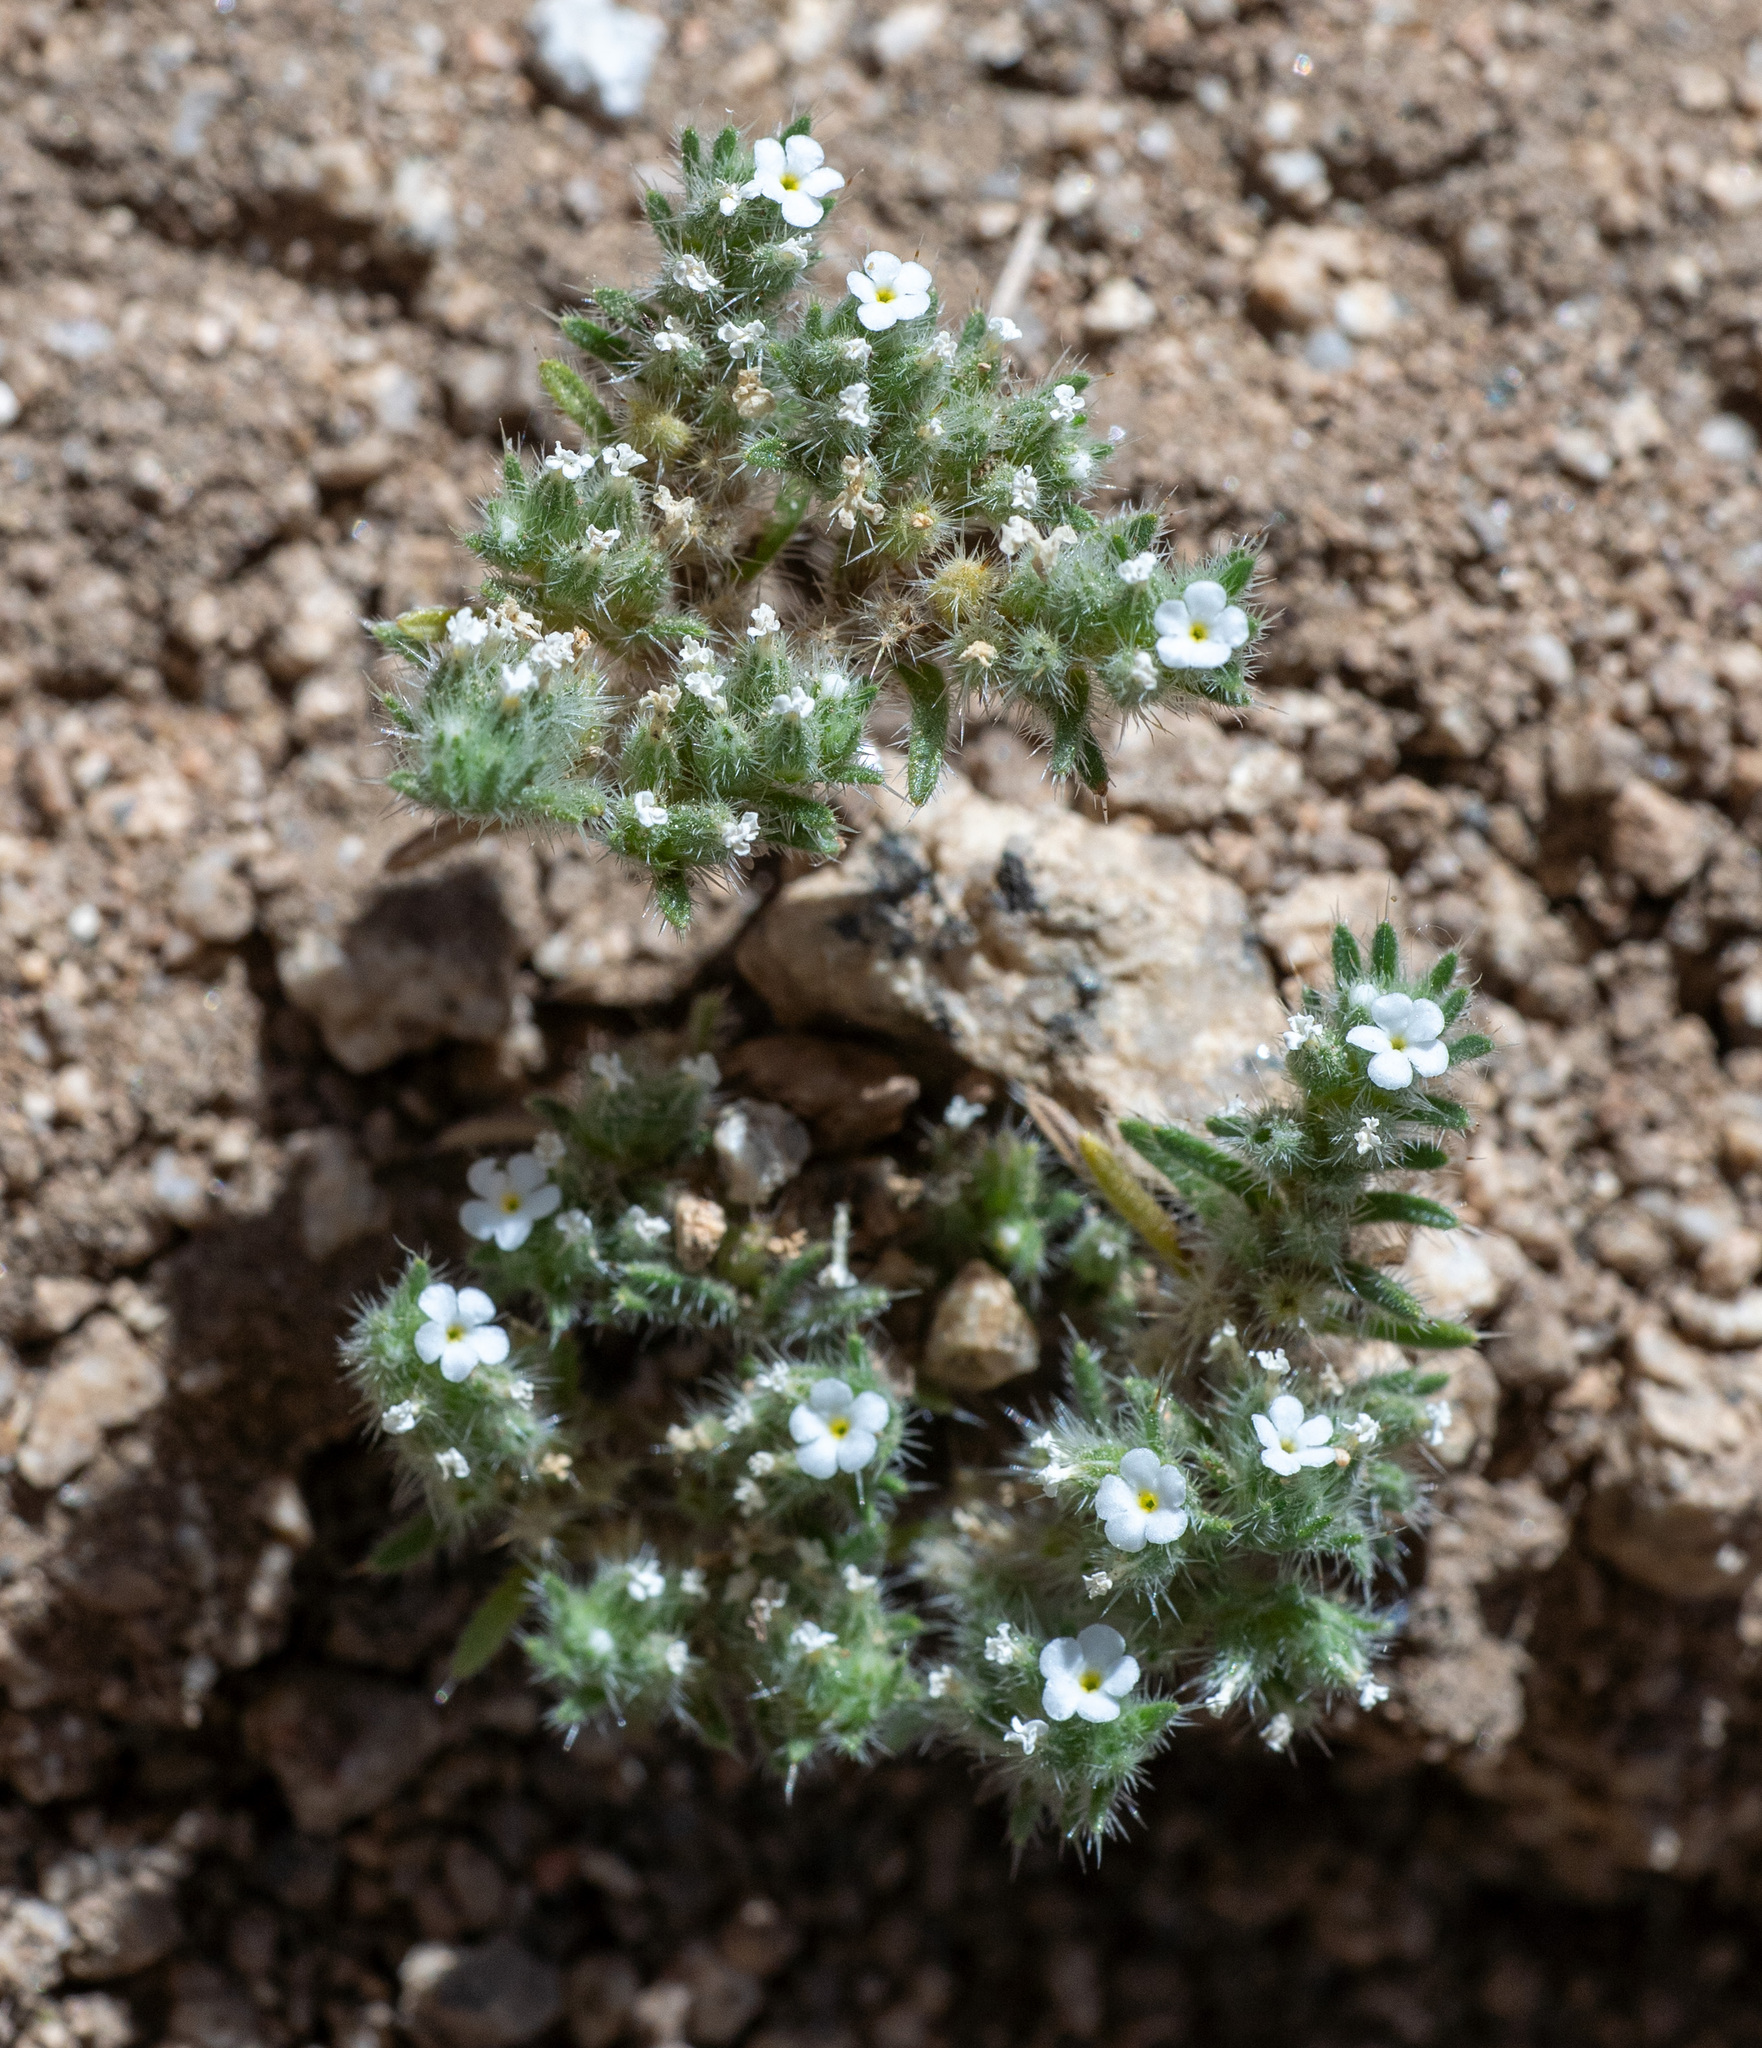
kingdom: Plantae
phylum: Tracheophyta
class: Magnoliopsida
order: Boraginales
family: Boraginaceae
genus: Greeneocharis
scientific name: Greeneocharis circumscissa
